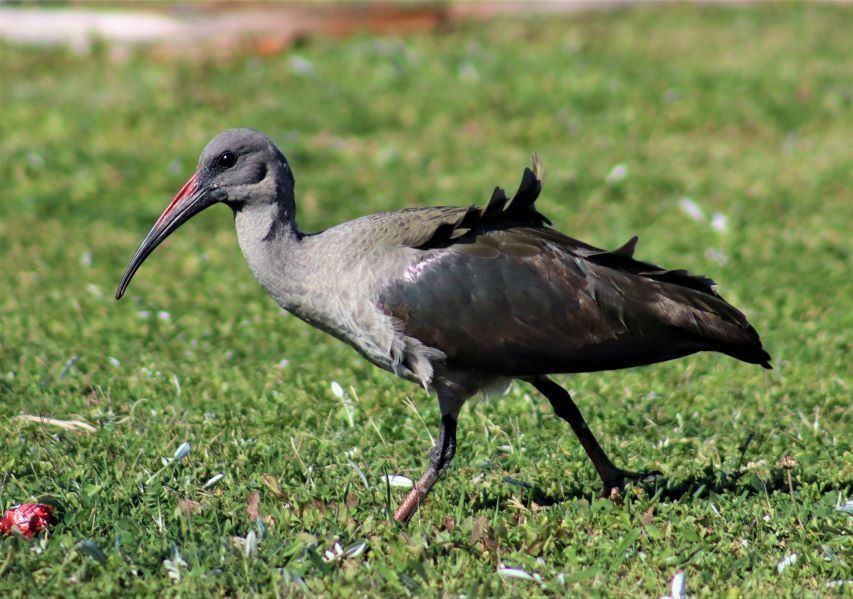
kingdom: Animalia
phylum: Chordata
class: Aves
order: Pelecaniformes
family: Threskiornithidae
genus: Bostrychia
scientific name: Bostrychia hagedash
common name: Hadada ibis
